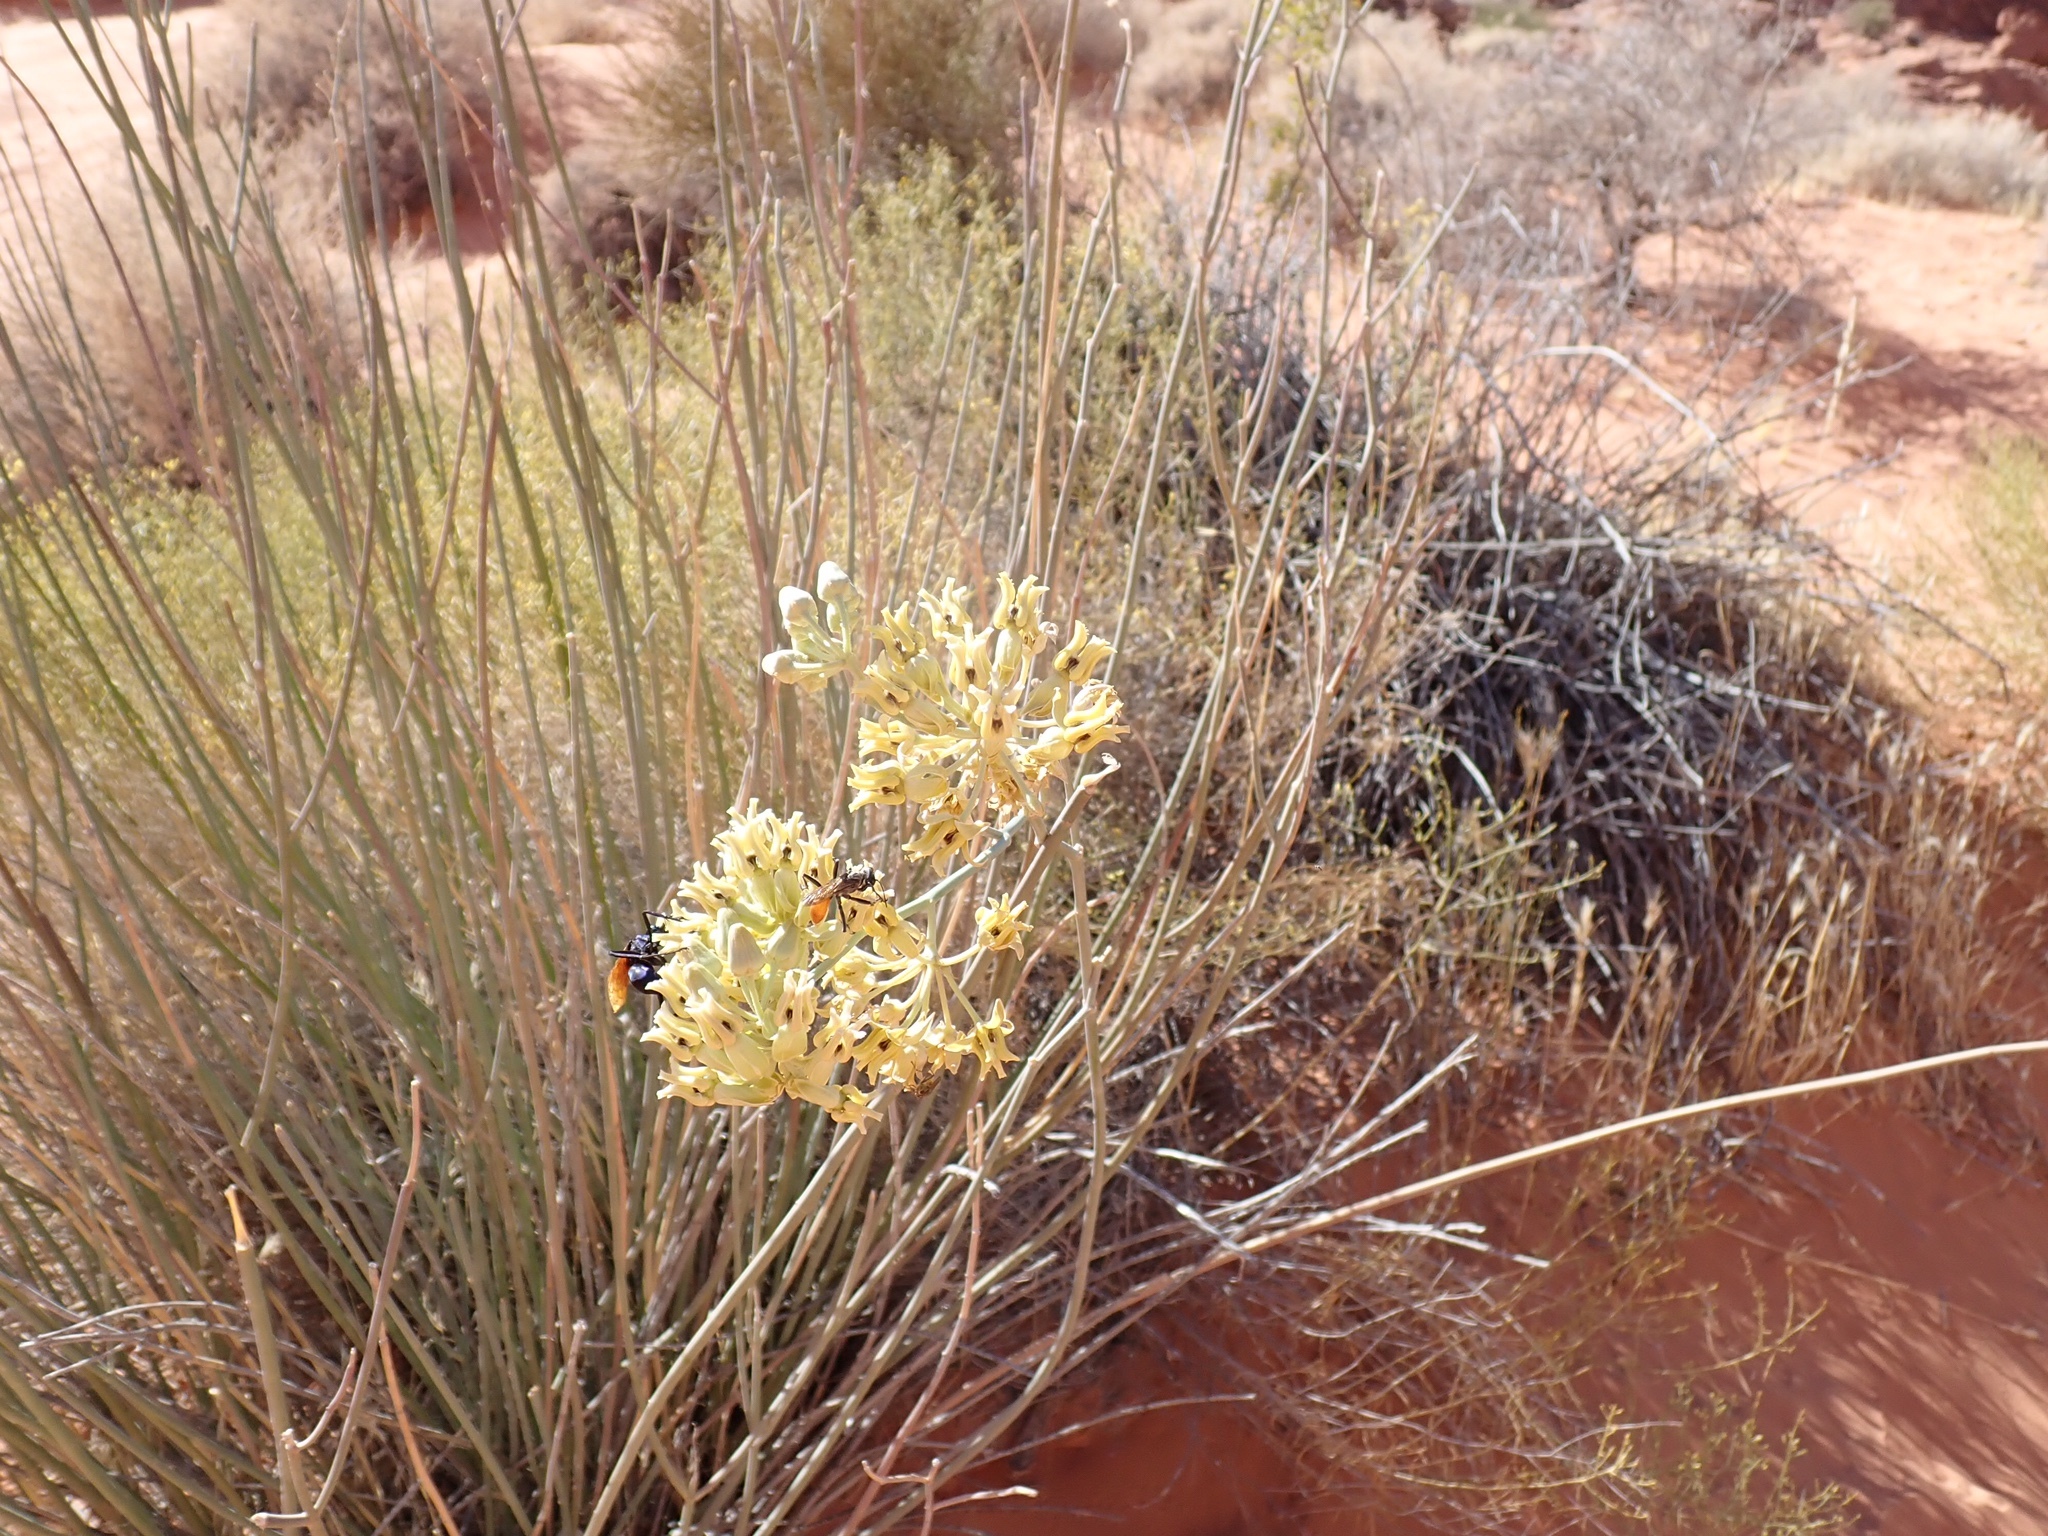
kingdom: Plantae
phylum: Tracheophyta
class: Magnoliopsida
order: Gentianales
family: Apocynaceae
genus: Asclepias
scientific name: Asclepias subulata
